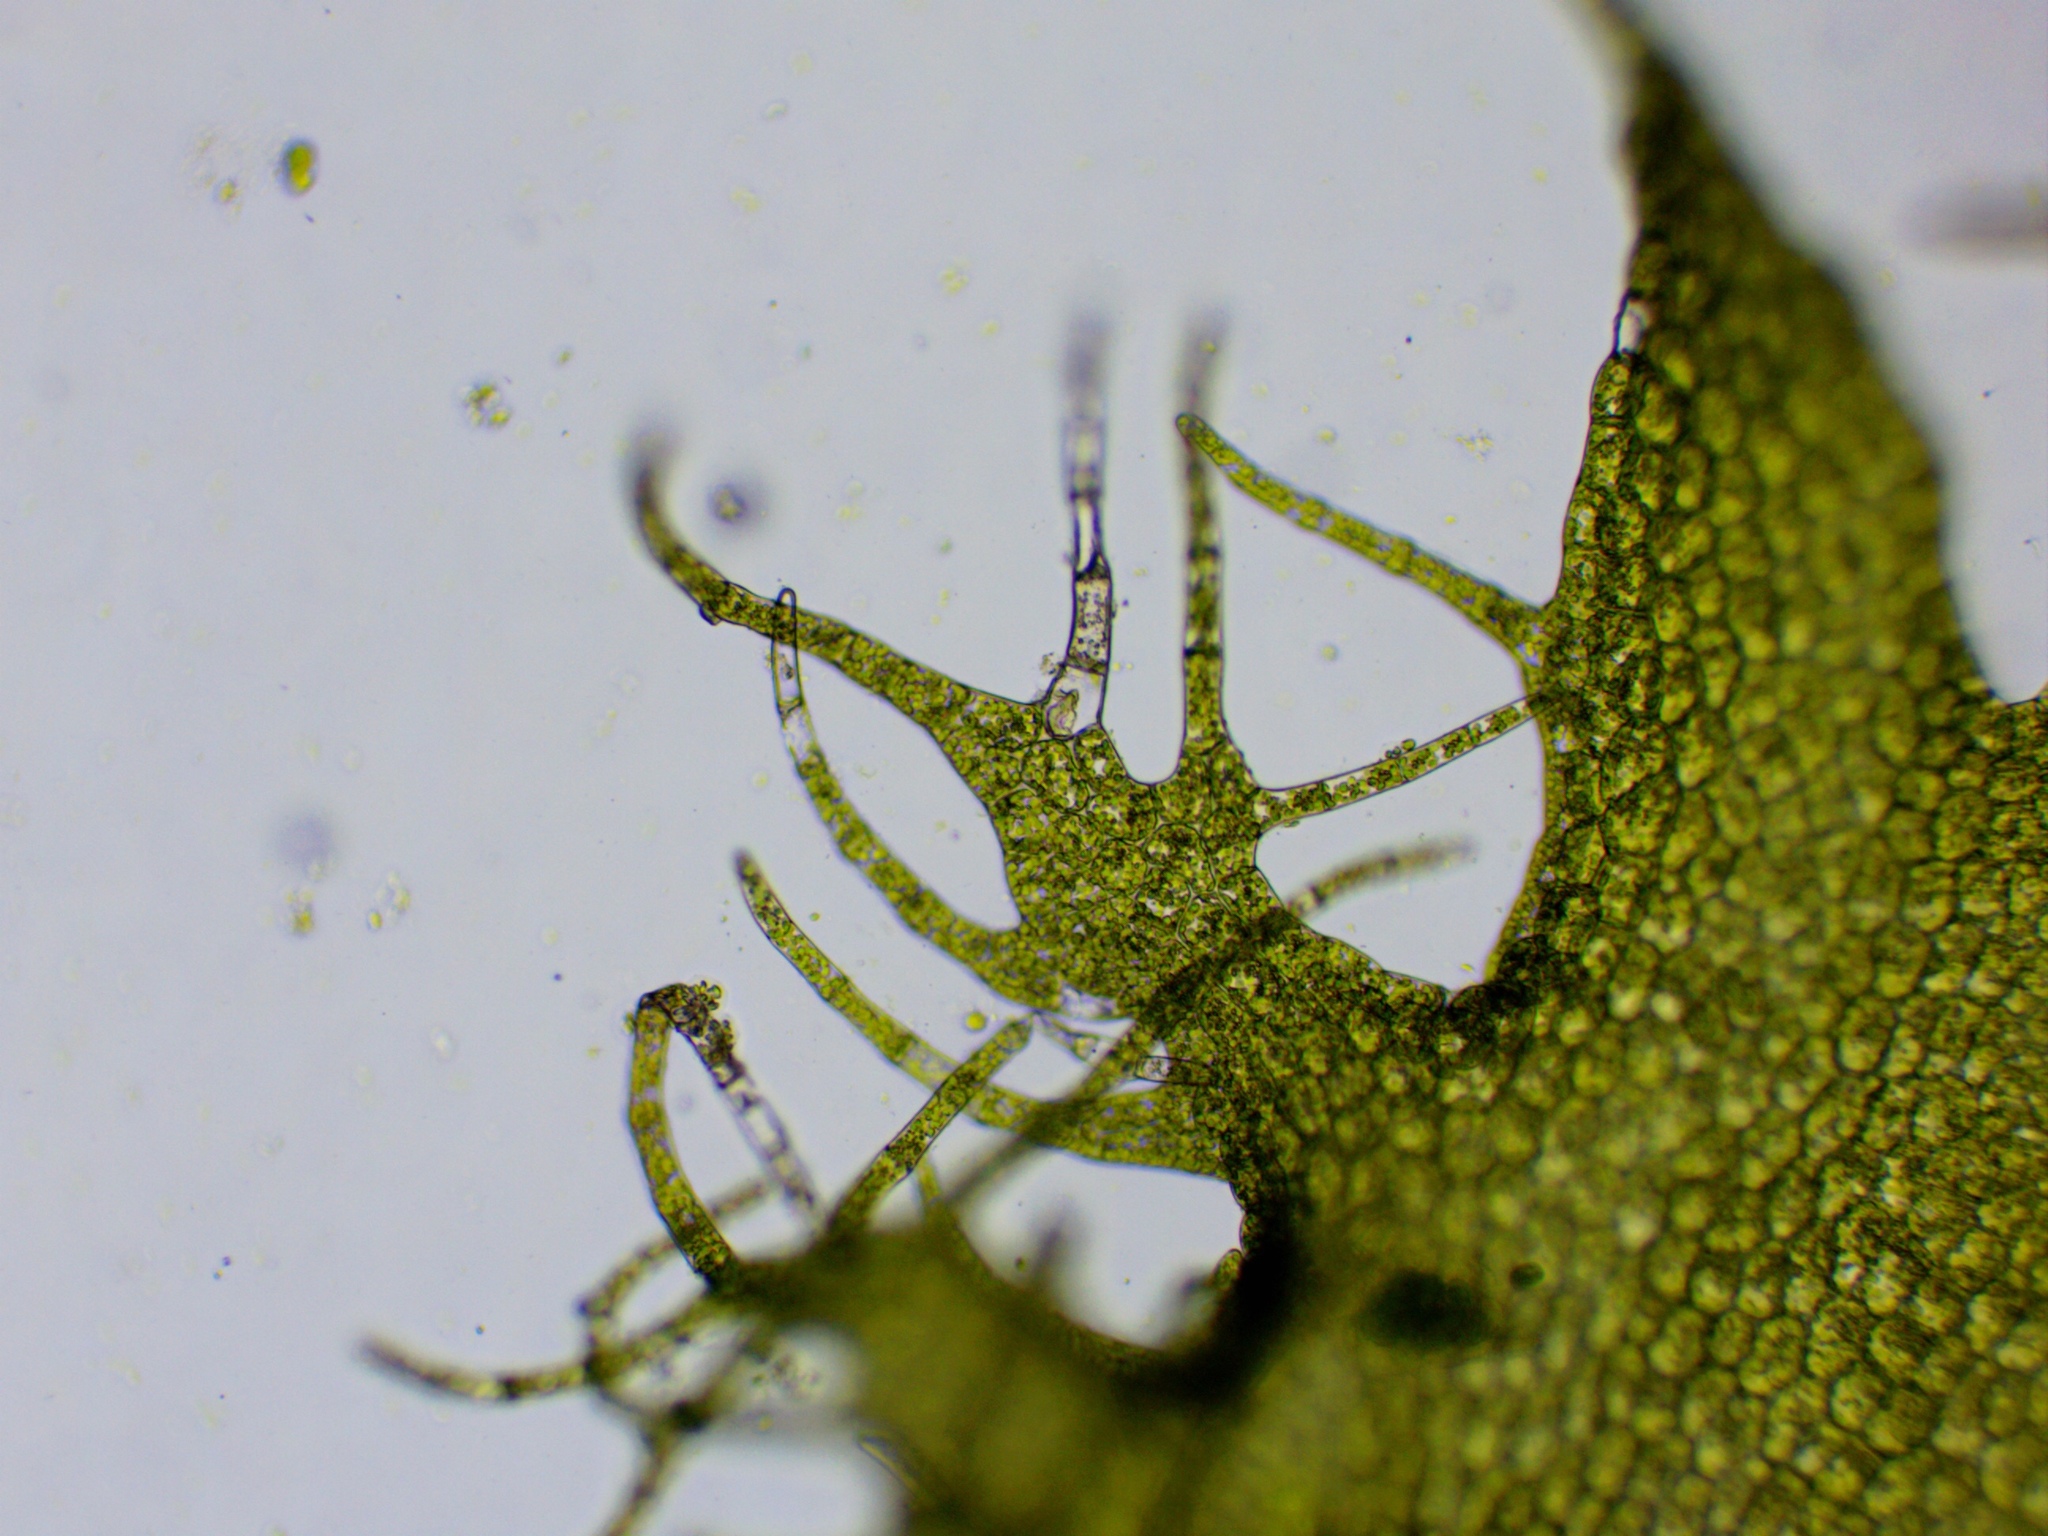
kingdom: Plantae
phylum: Marchantiophyta
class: Jungermanniopsida
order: Ptilidiales
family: Ptilidiaceae
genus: Ptilidium
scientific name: Ptilidium ciliare
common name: Ciliate fringewort
